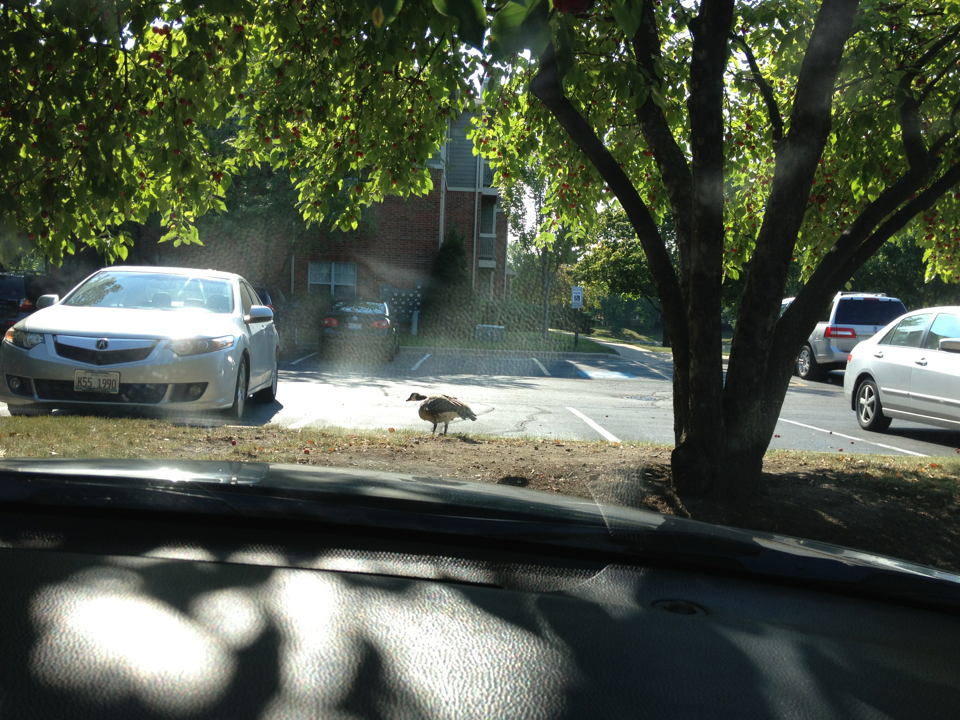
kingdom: Animalia
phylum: Chordata
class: Aves
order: Anseriformes
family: Anatidae
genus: Branta
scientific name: Branta canadensis
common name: Canada goose
